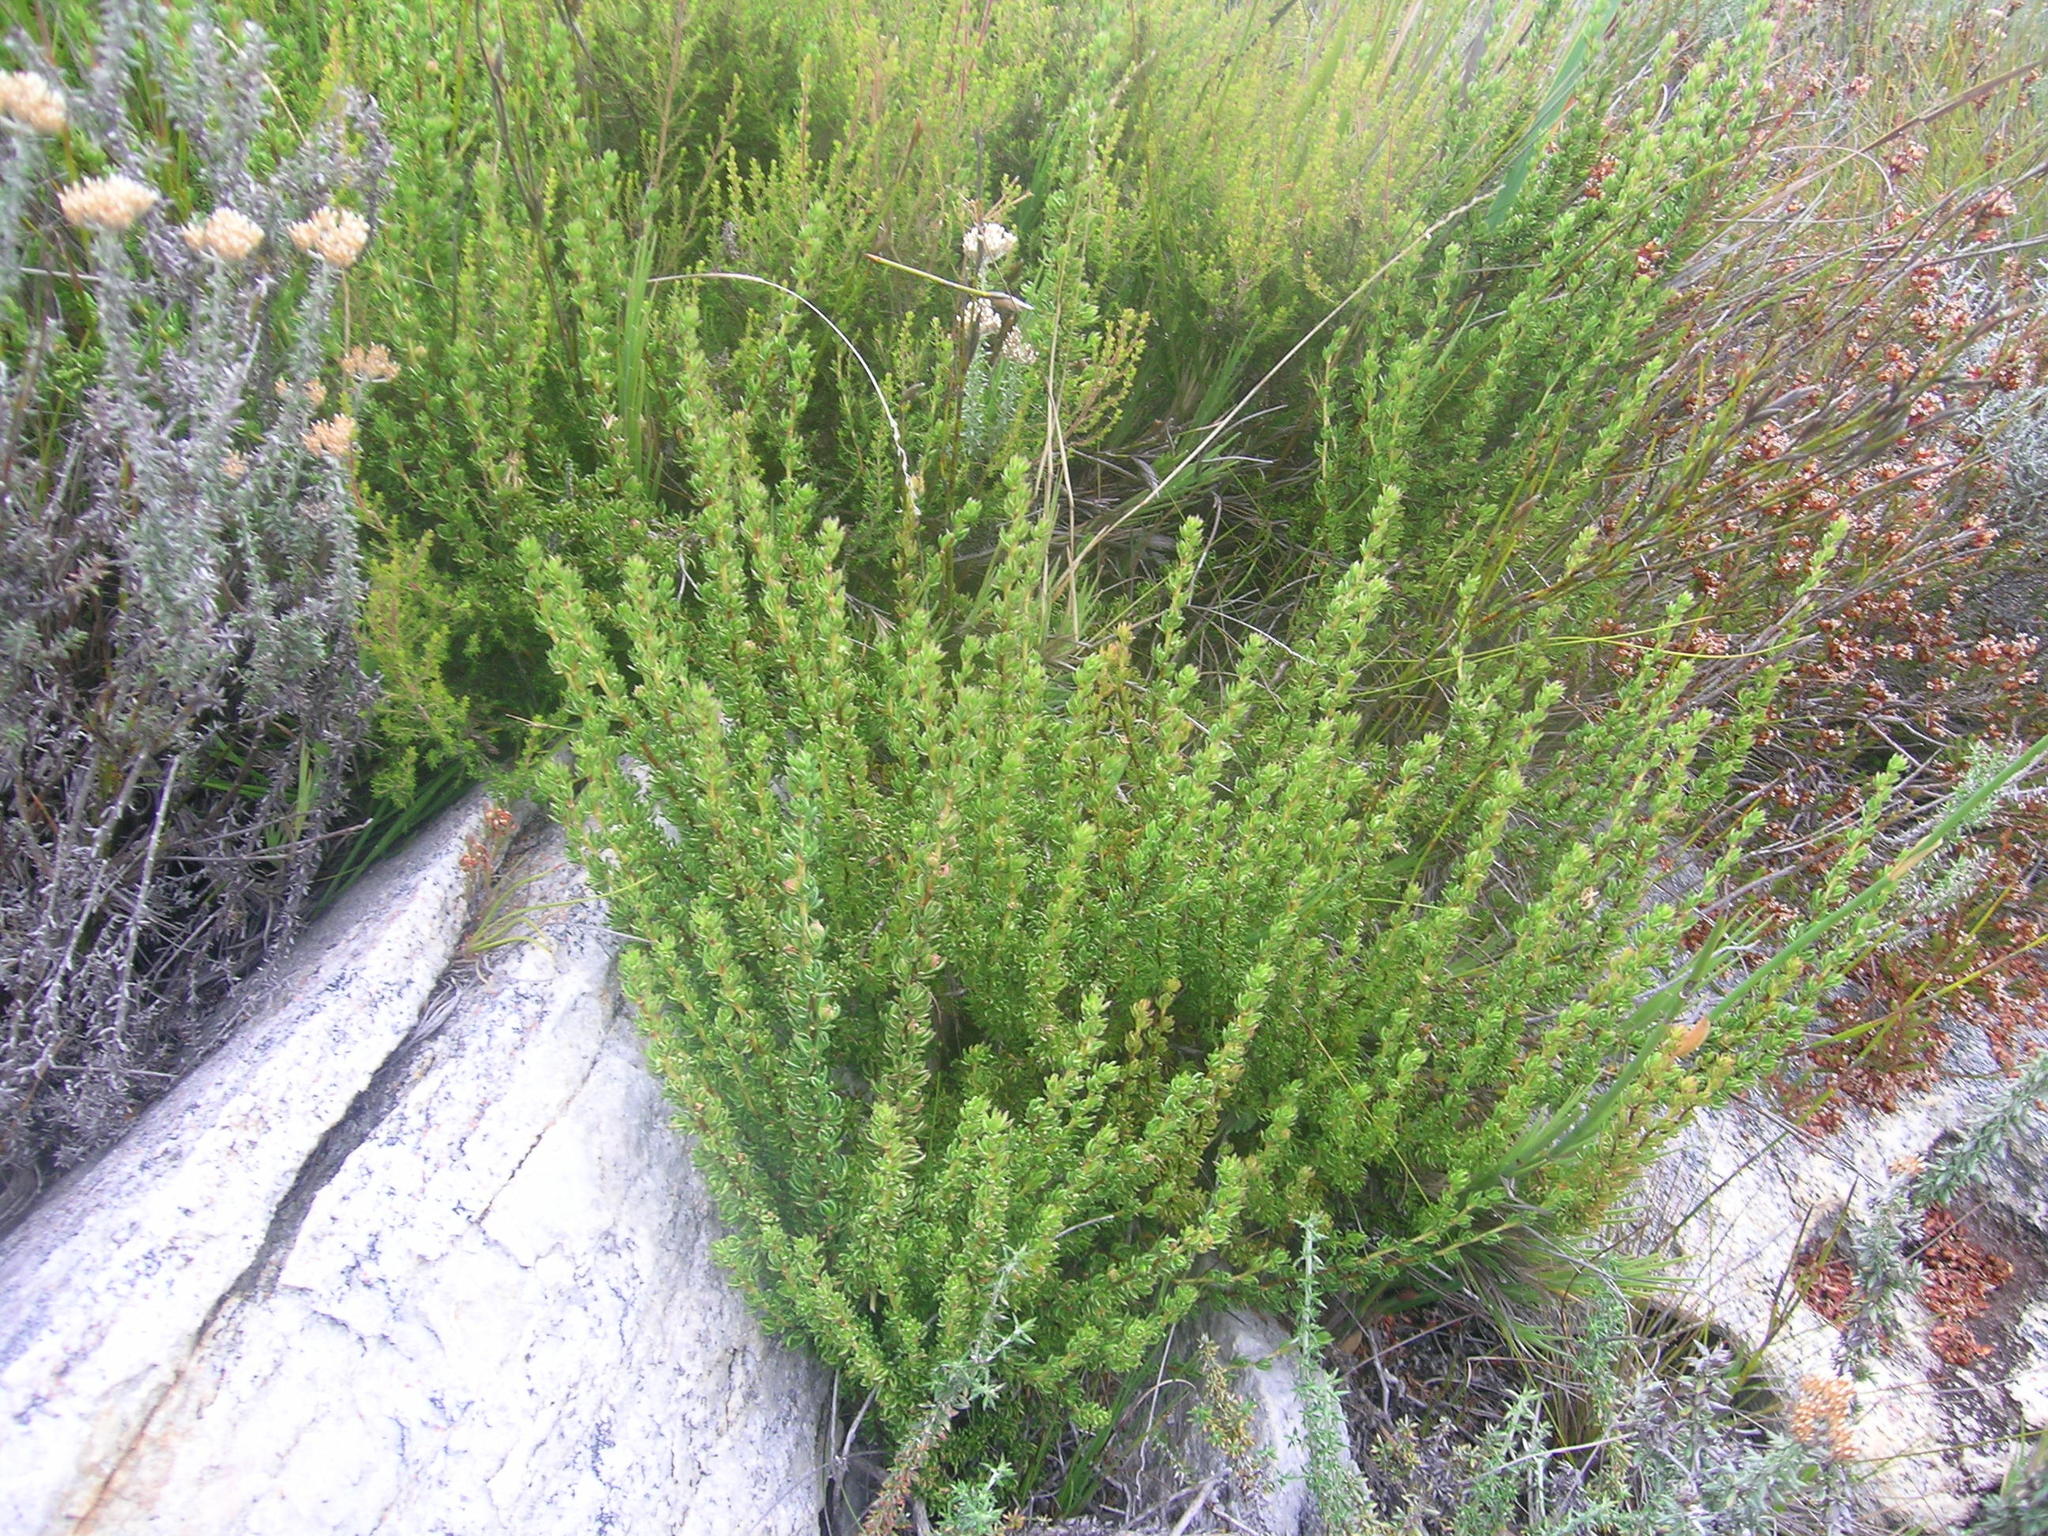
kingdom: Plantae
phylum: Tracheophyta
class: Magnoliopsida
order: Rosales
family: Rosaceae
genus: Cliffortia
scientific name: Cliffortia densa
